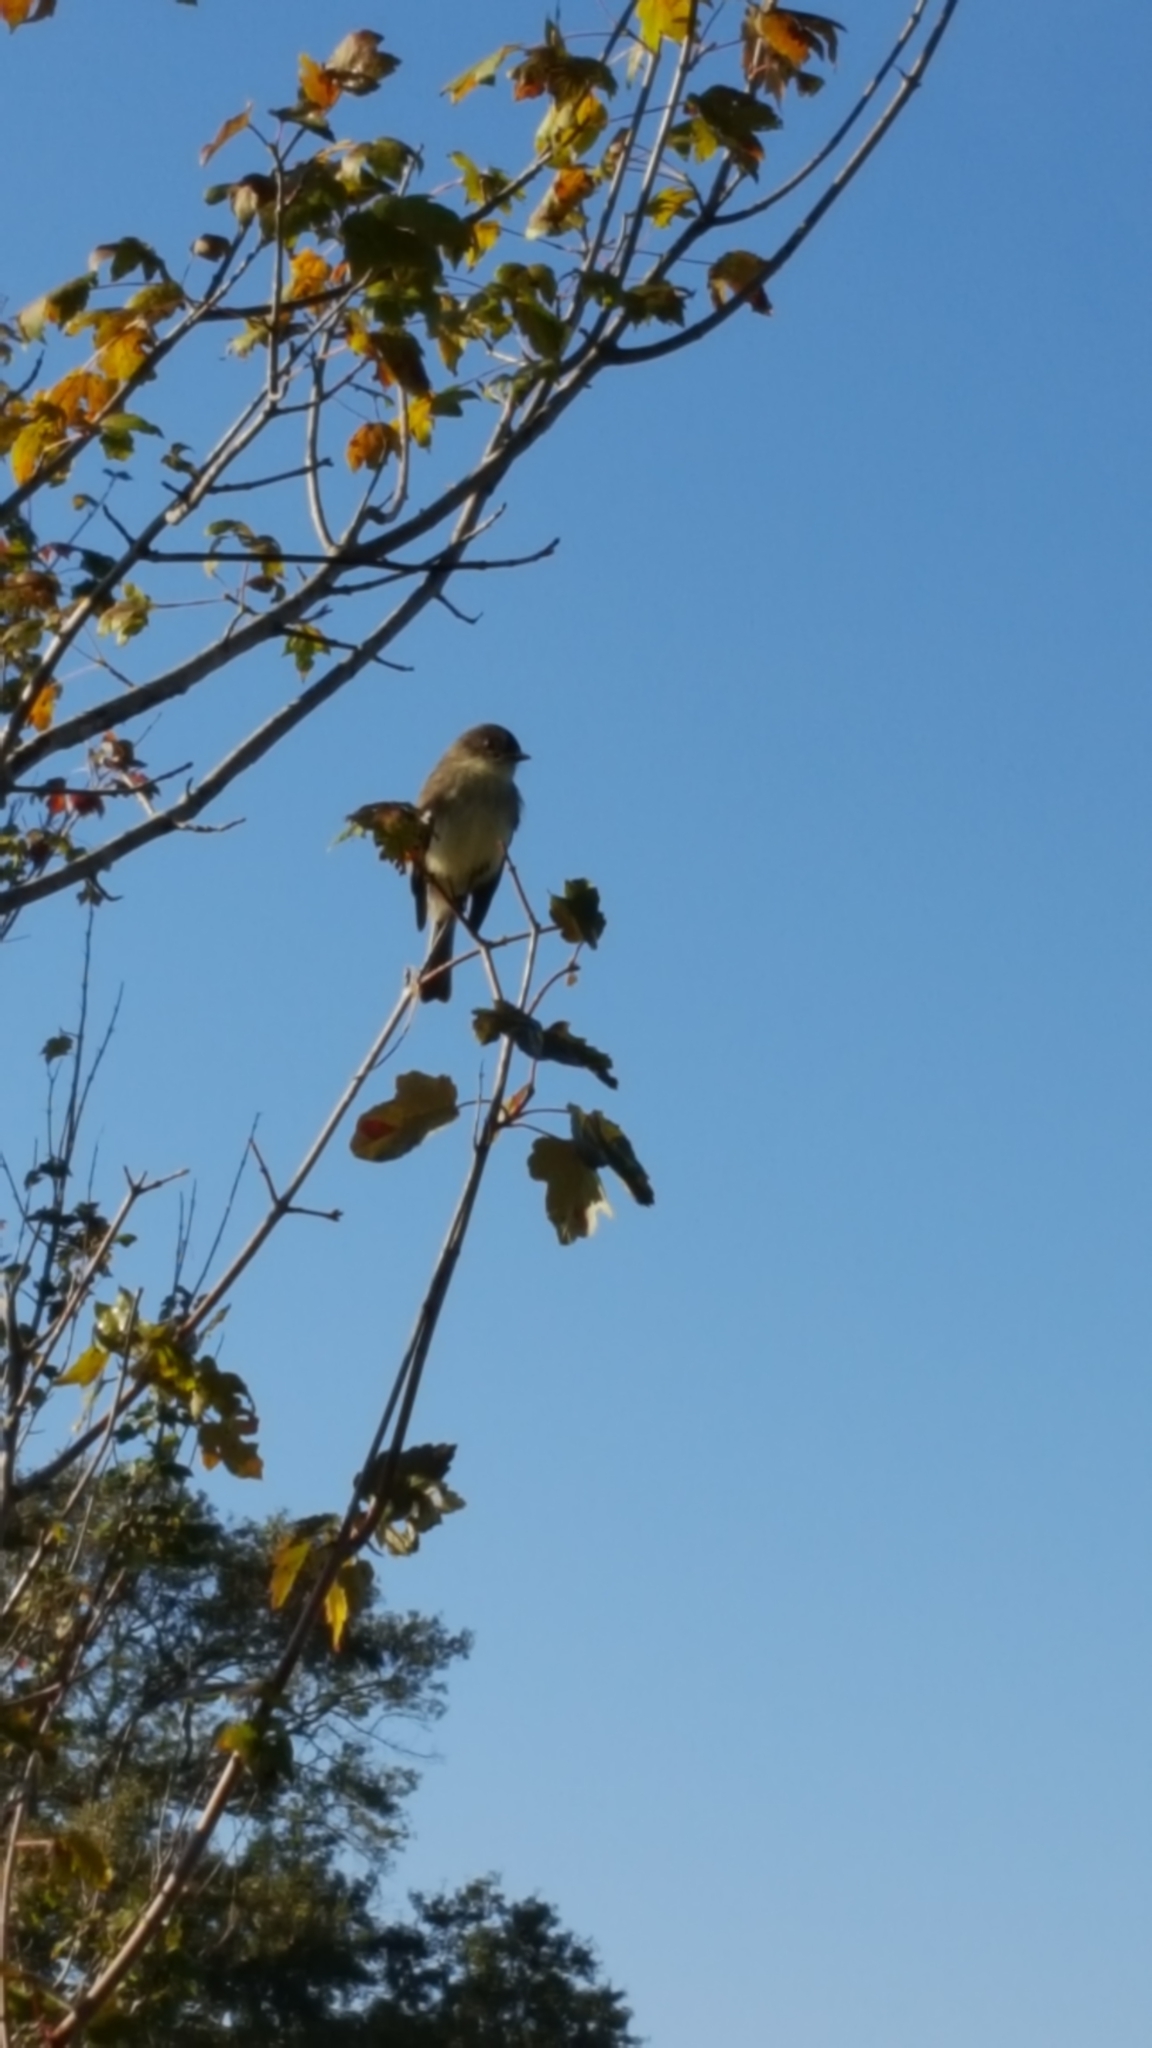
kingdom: Animalia
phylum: Chordata
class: Aves
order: Passeriformes
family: Tyrannidae
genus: Sayornis
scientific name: Sayornis phoebe
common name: Eastern phoebe
